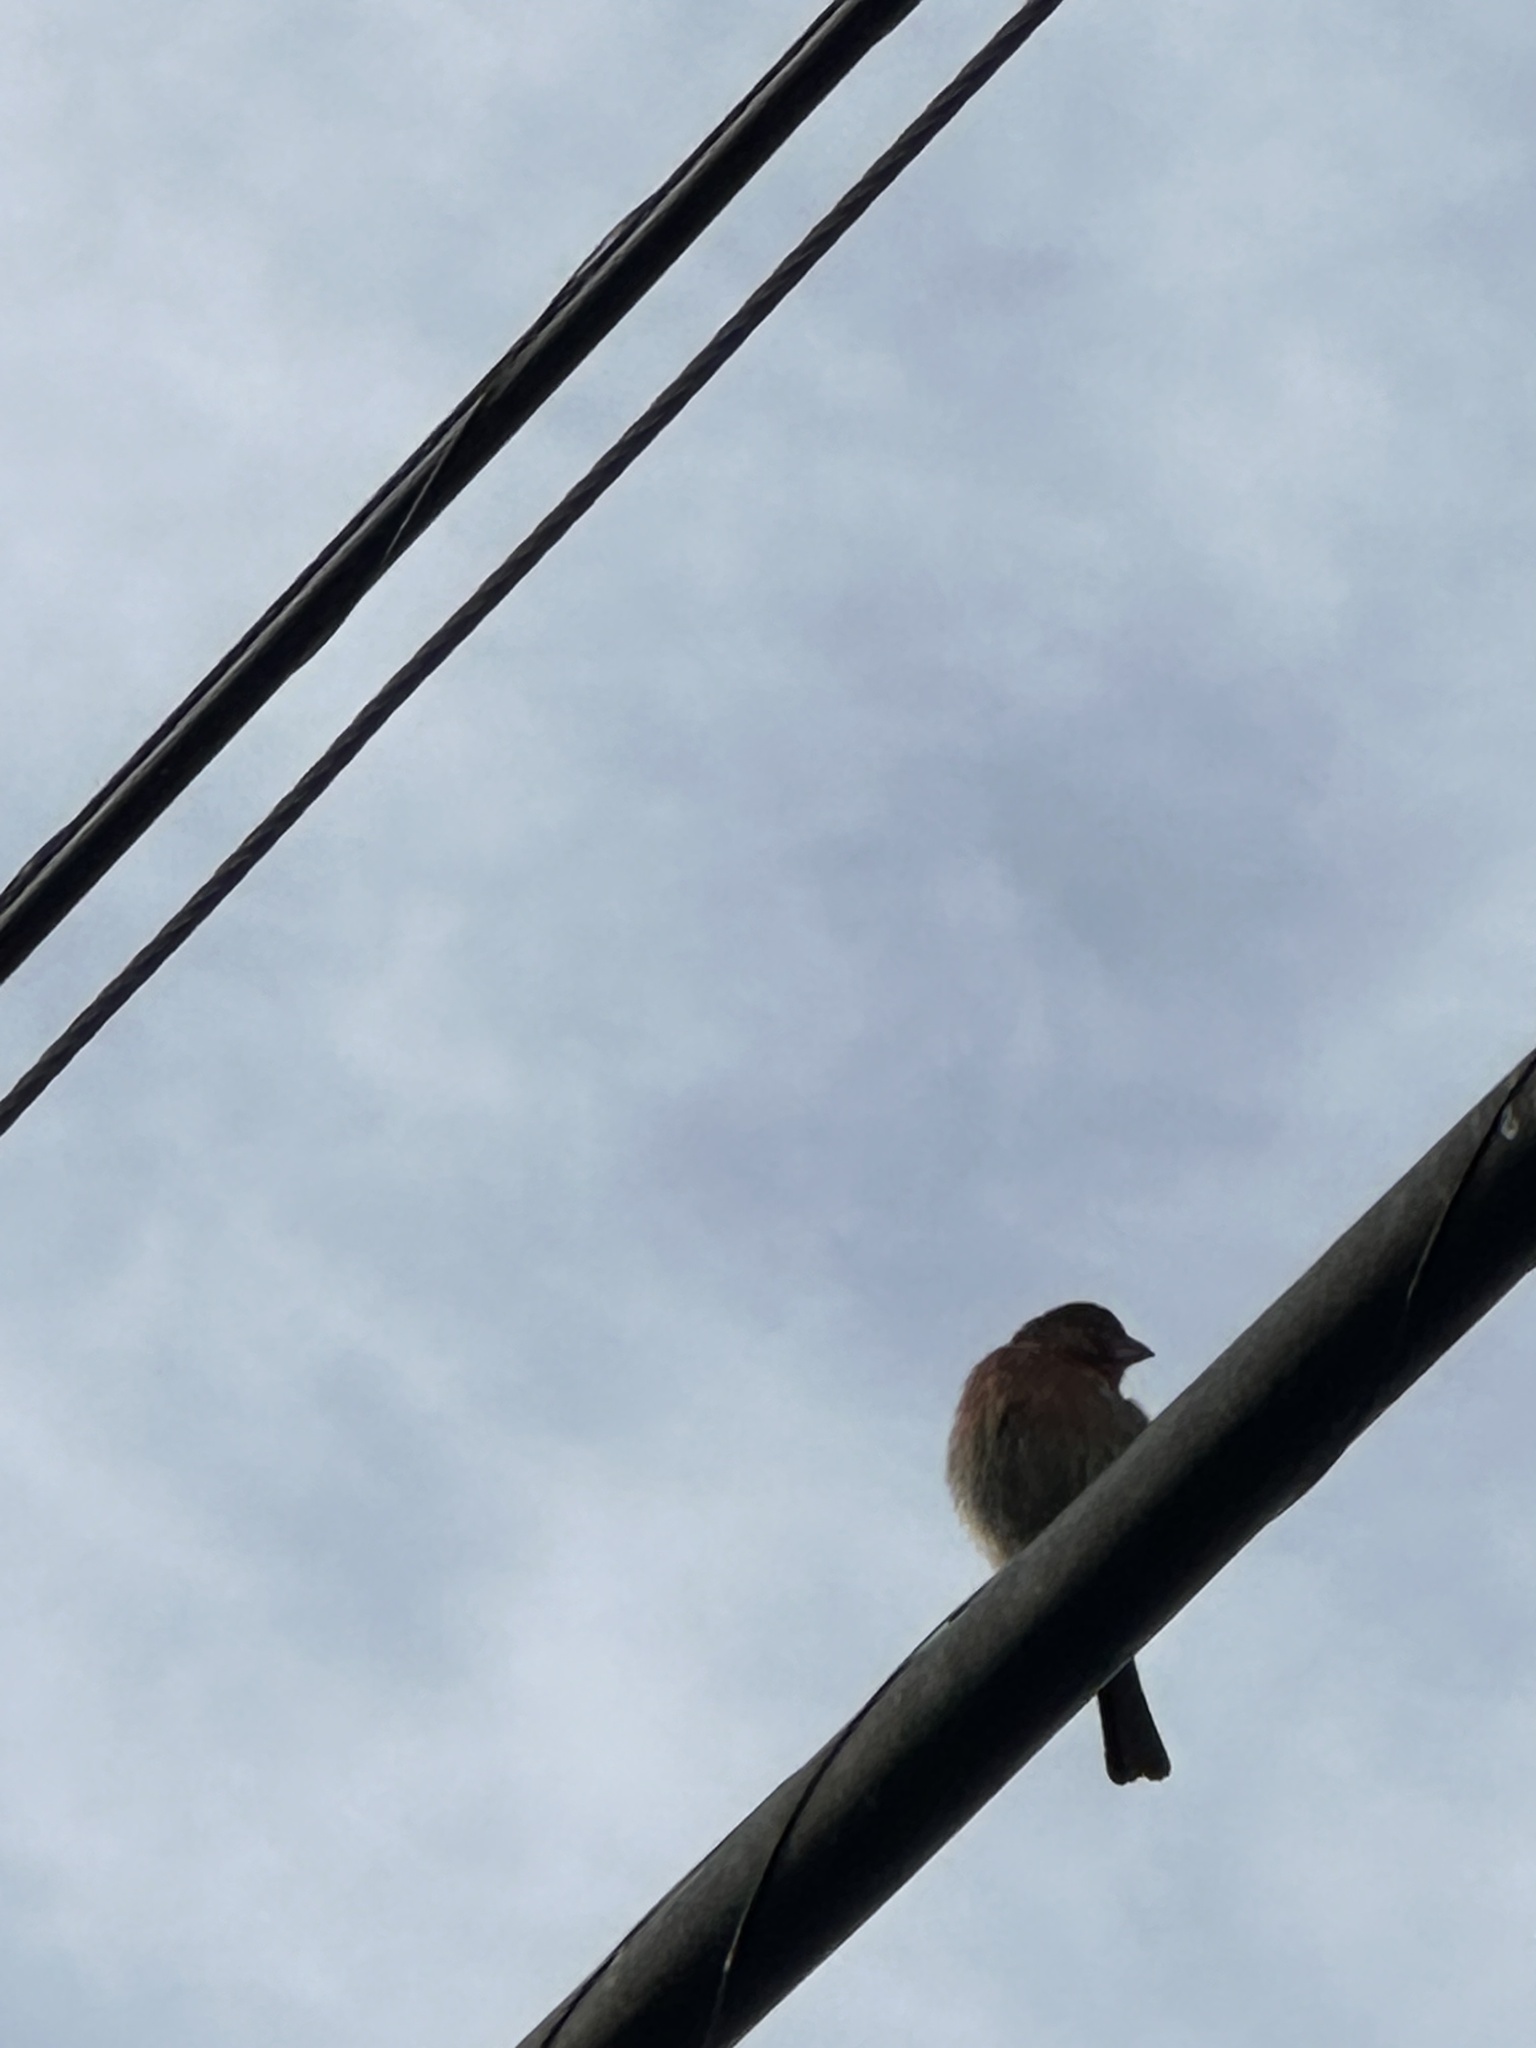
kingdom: Animalia
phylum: Chordata
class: Aves
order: Passeriformes
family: Fringillidae
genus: Haemorhous
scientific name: Haemorhous mexicanus
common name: House finch
